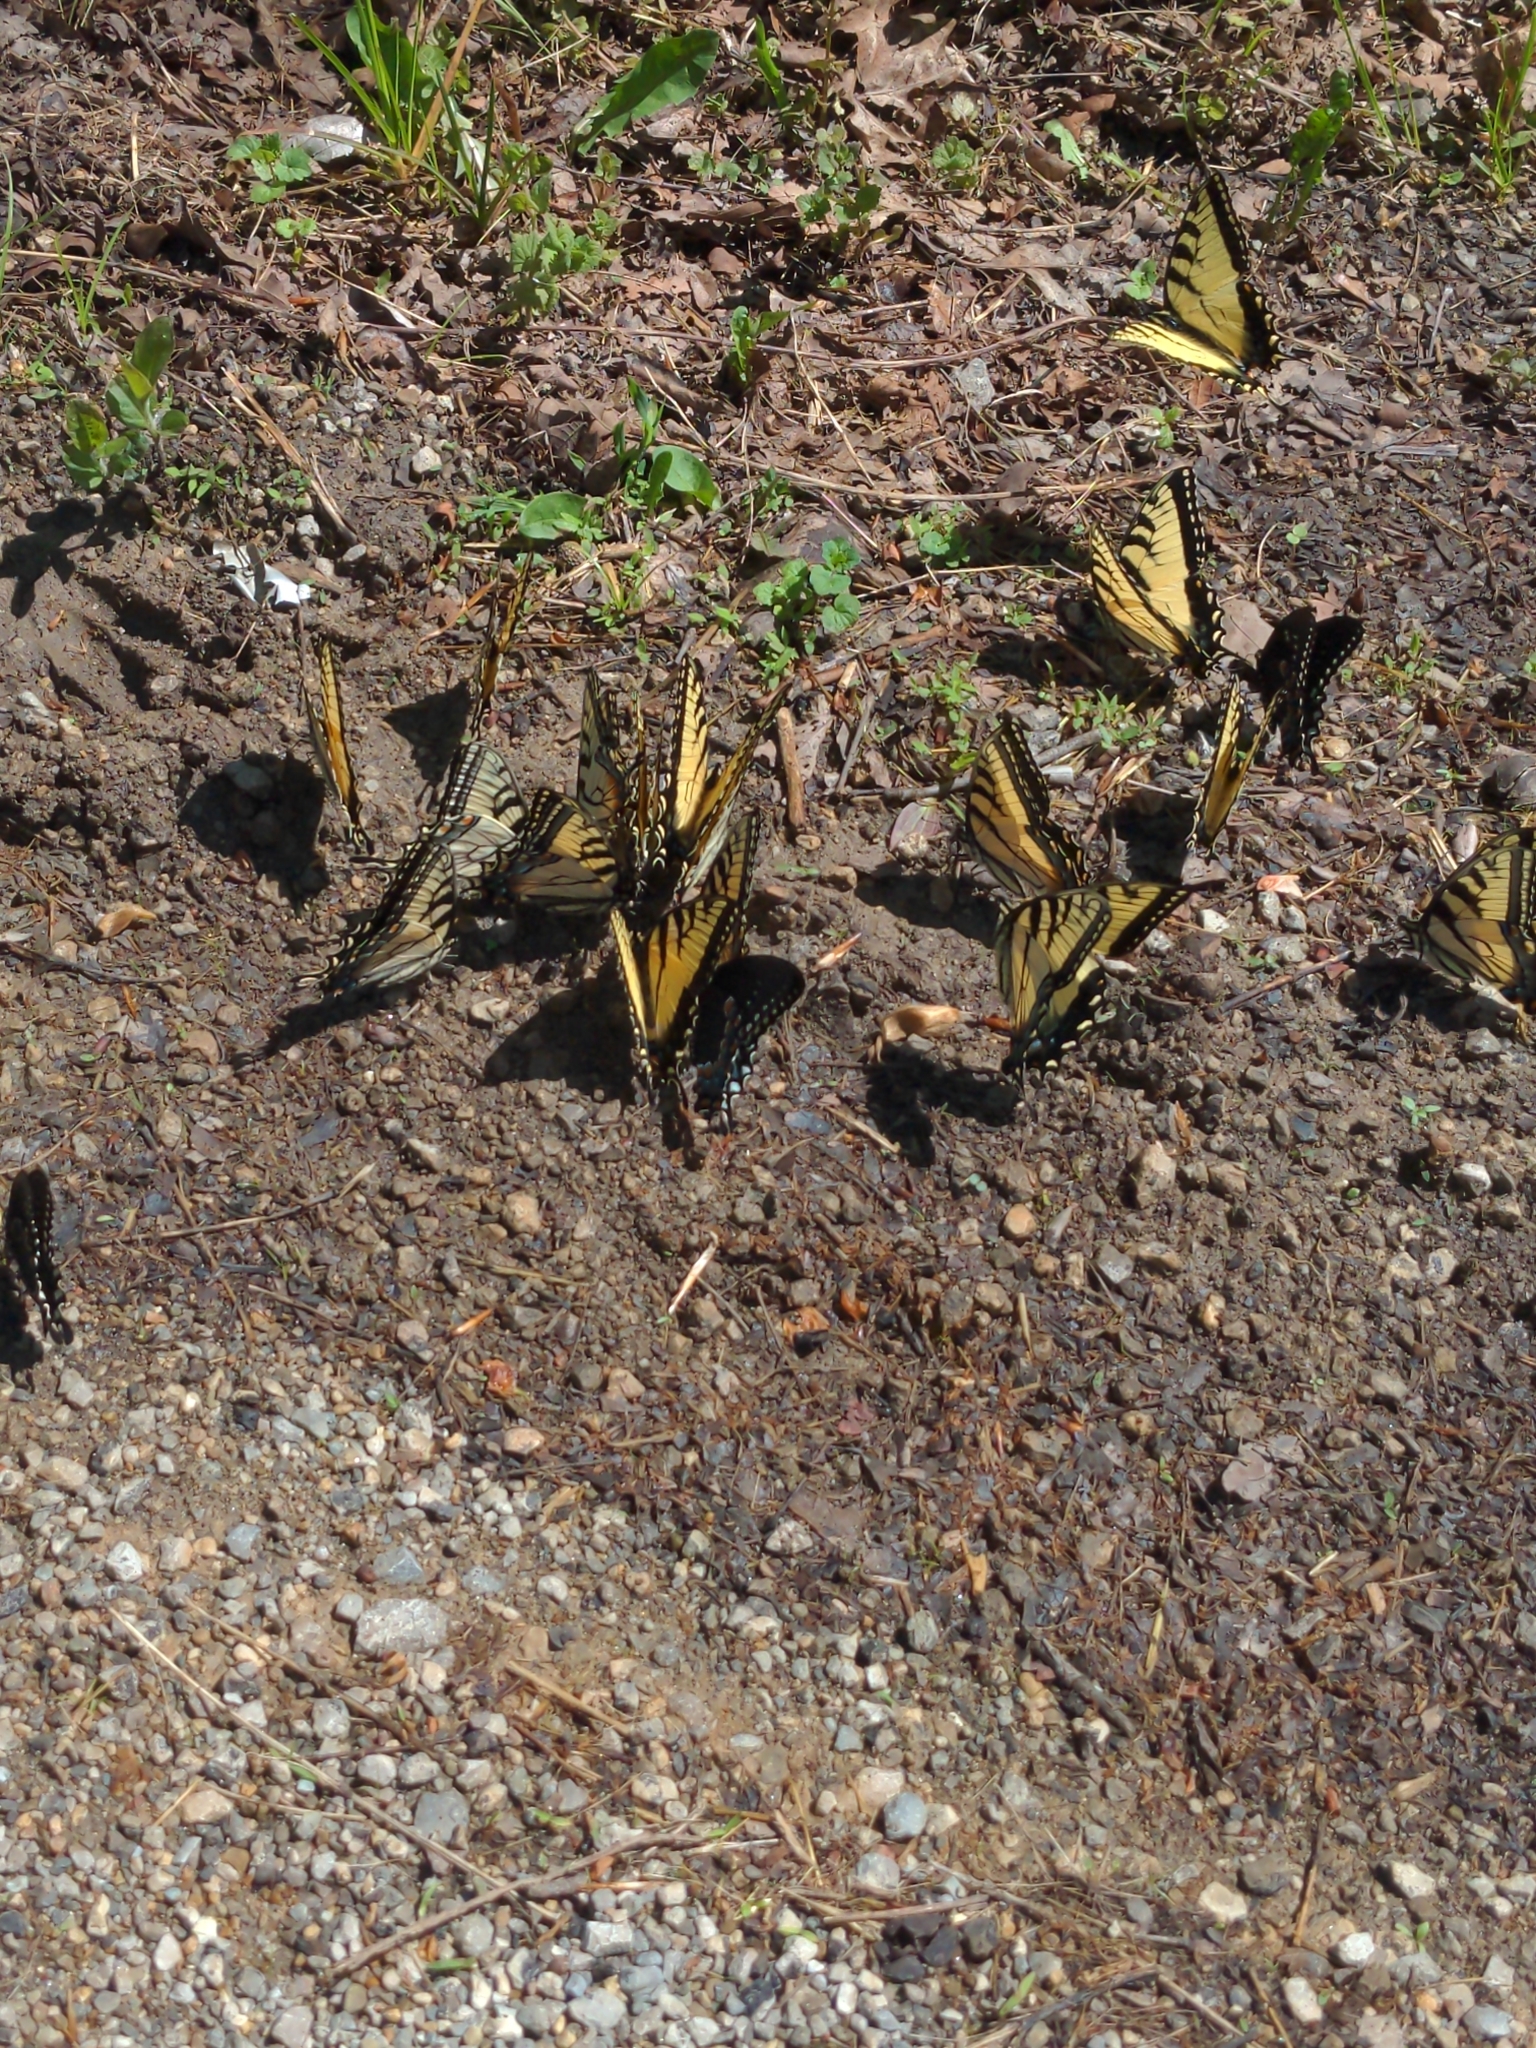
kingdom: Animalia
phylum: Arthropoda
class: Insecta
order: Lepidoptera
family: Papilionidae
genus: Papilio
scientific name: Papilio glaucus
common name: Tiger swallowtail
